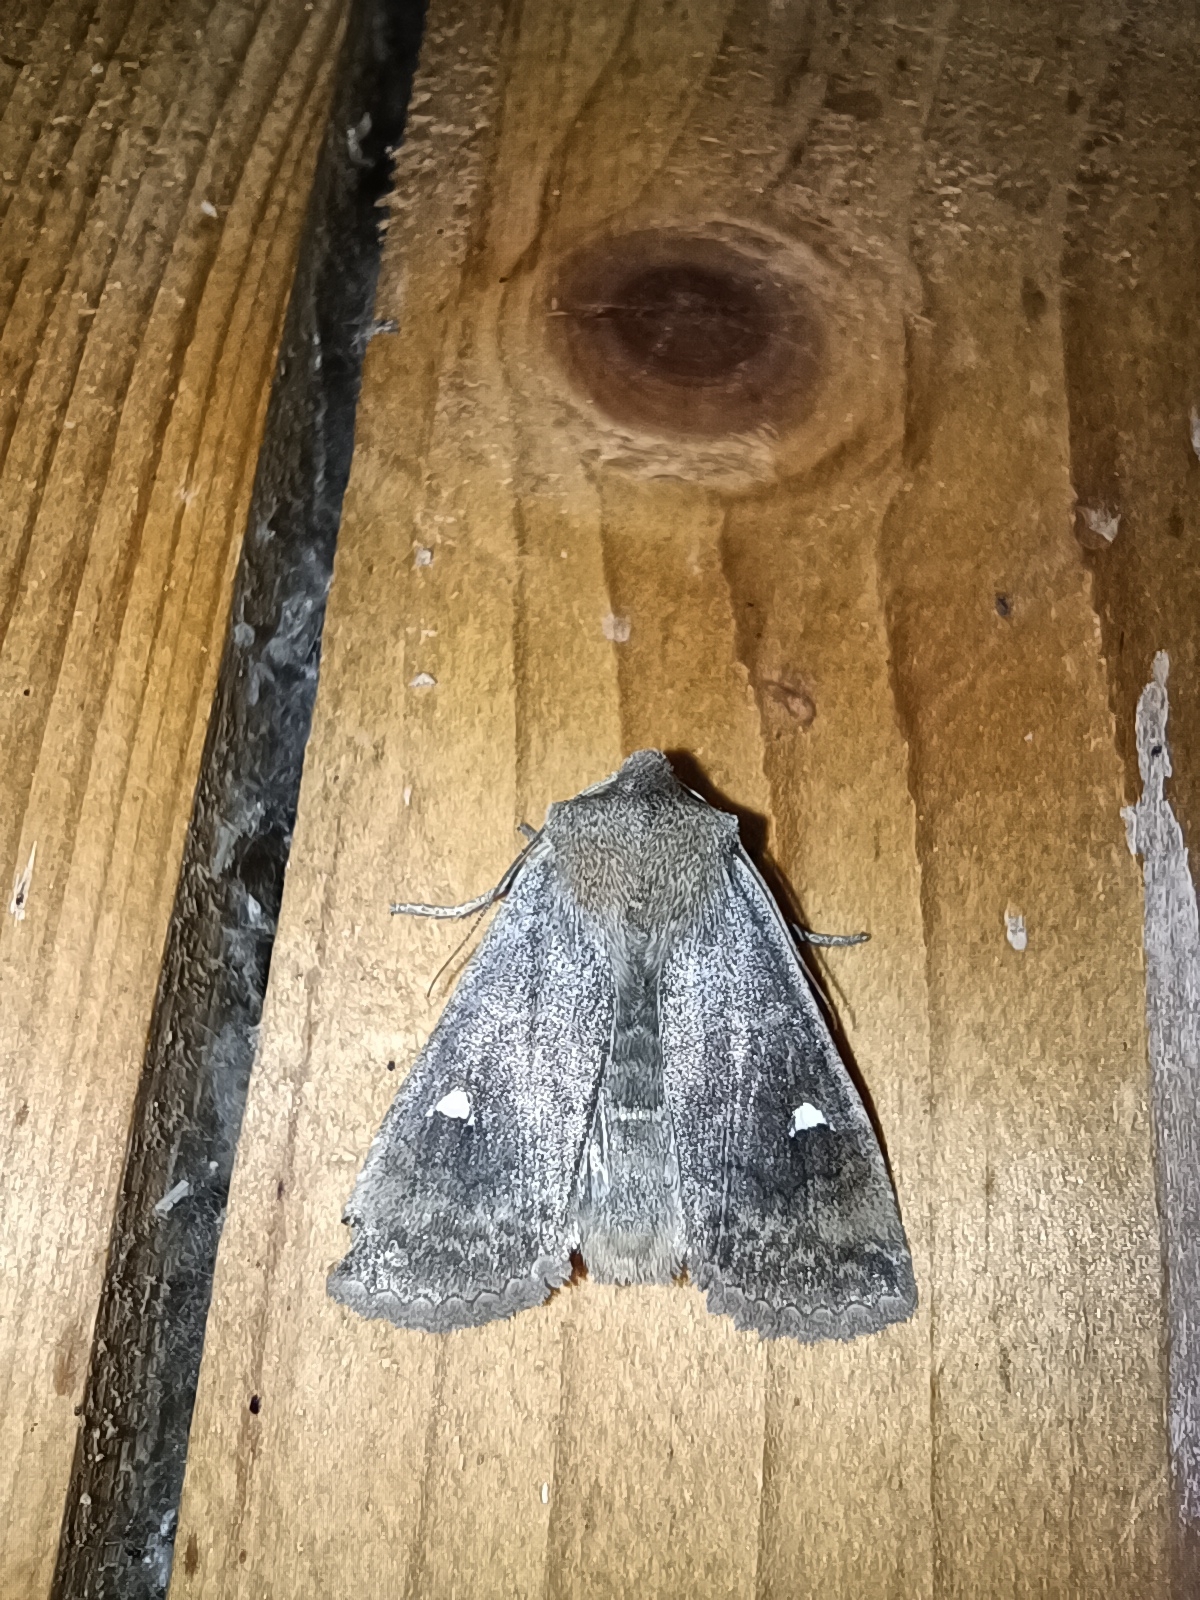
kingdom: Animalia
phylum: Arthropoda
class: Insecta
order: Lepidoptera
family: Noctuidae
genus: Eupsilia
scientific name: Eupsilia transversa
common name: Satellite
